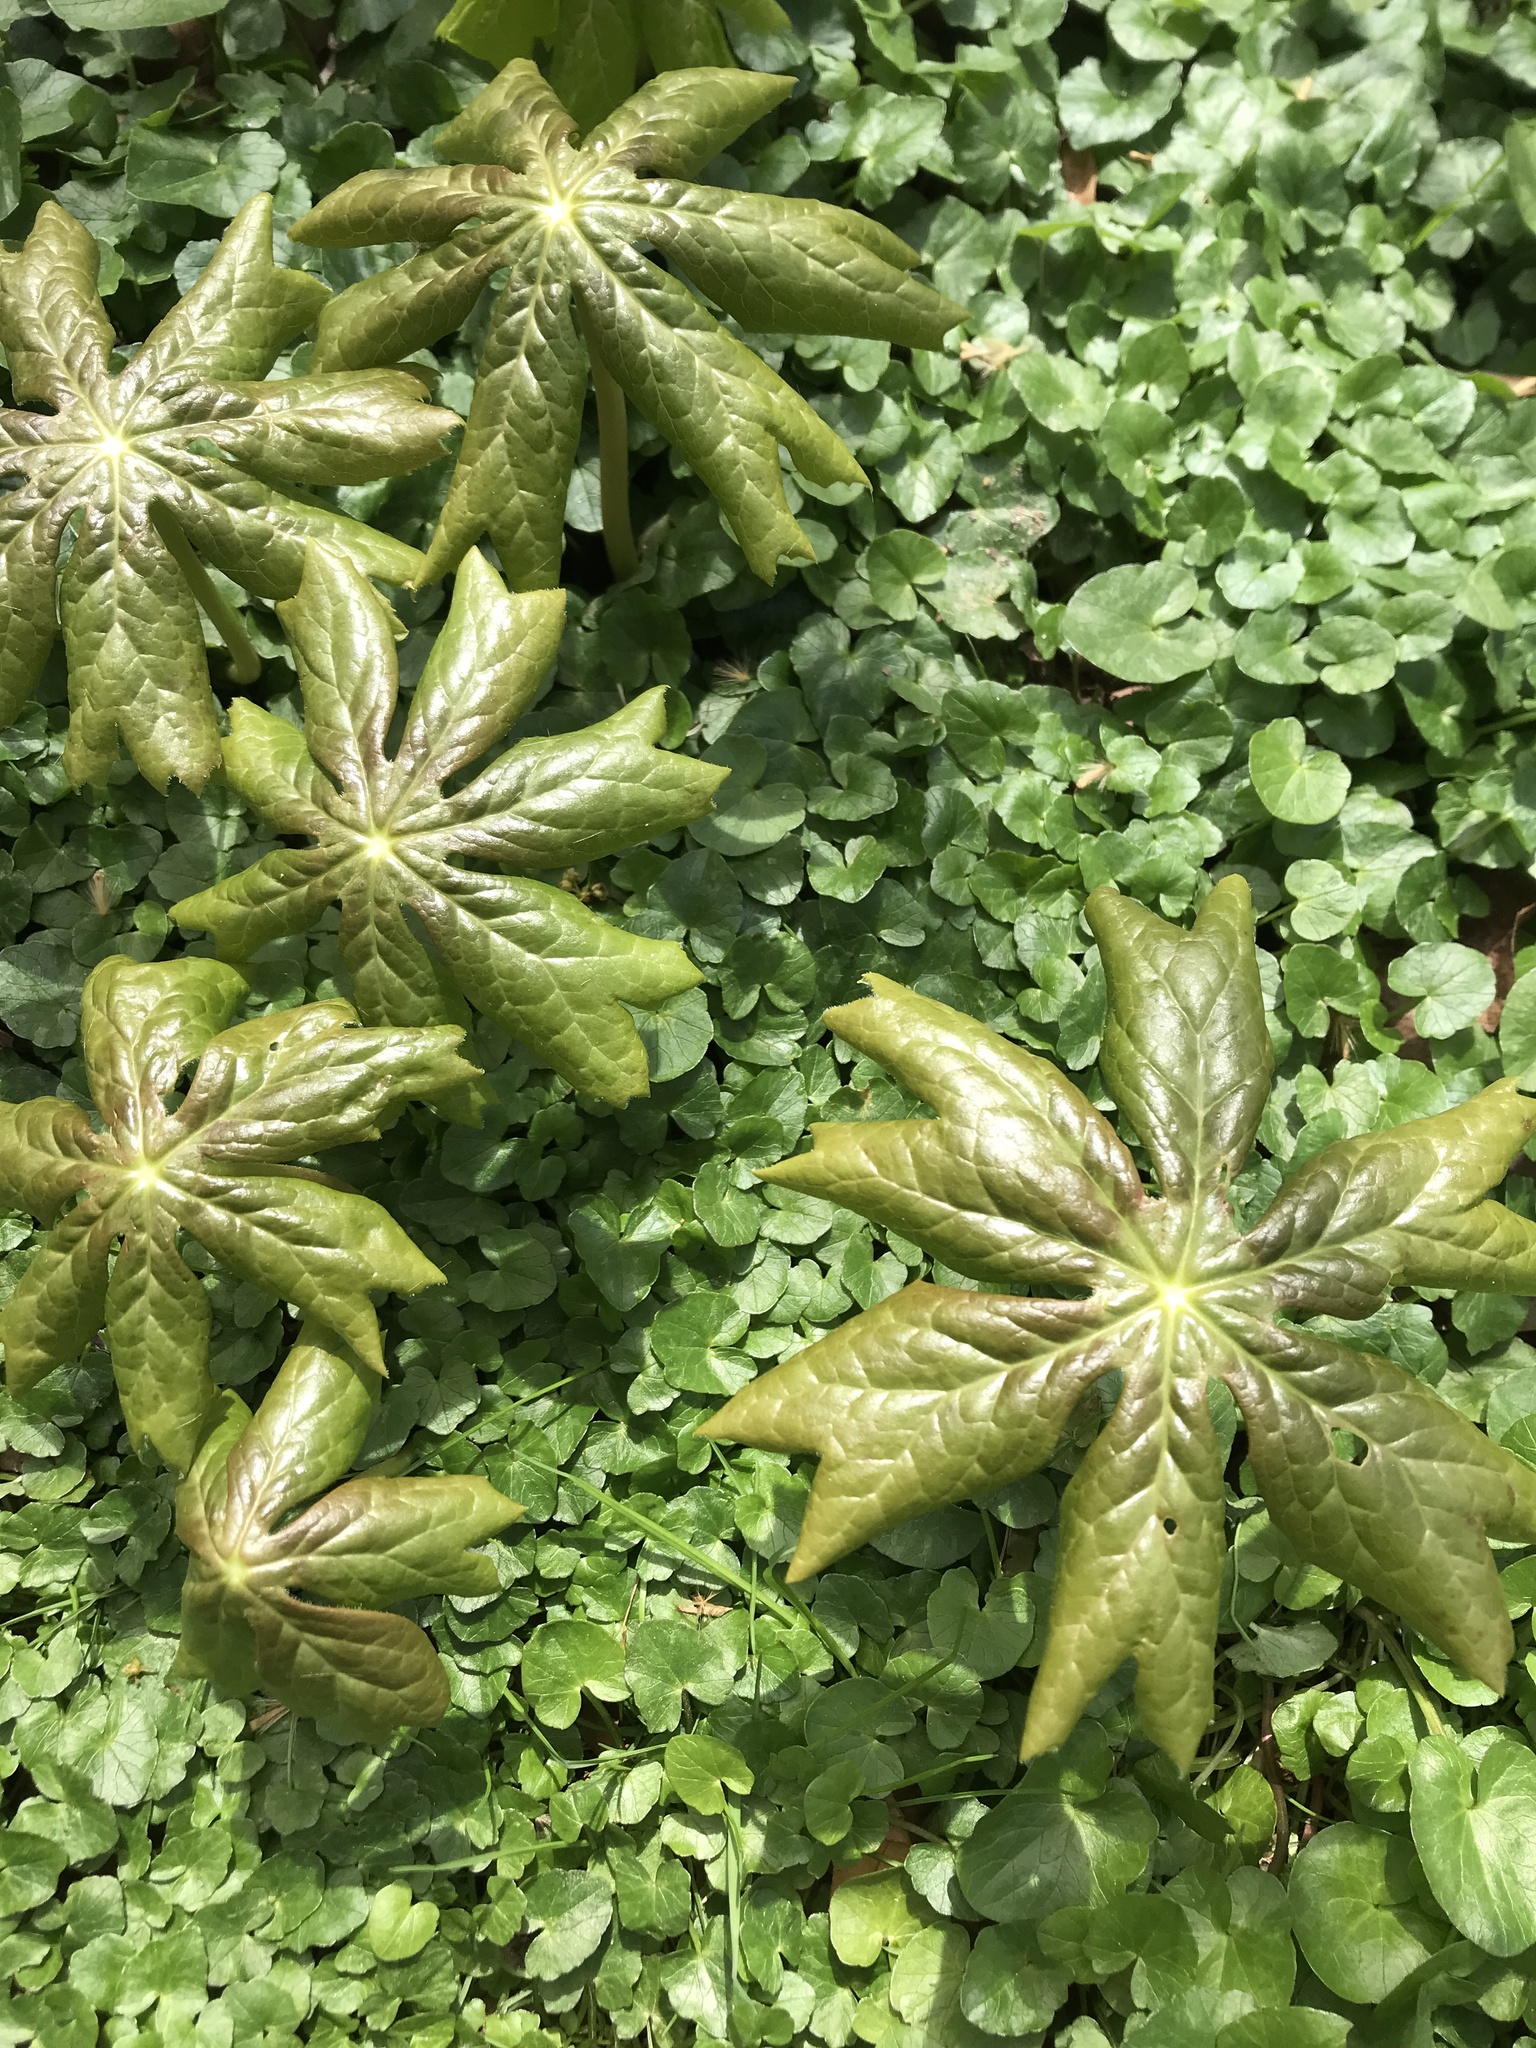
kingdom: Plantae
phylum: Tracheophyta
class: Magnoliopsida
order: Ranunculales
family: Berberidaceae
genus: Podophyllum
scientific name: Podophyllum peltatum
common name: Wild mandrake
